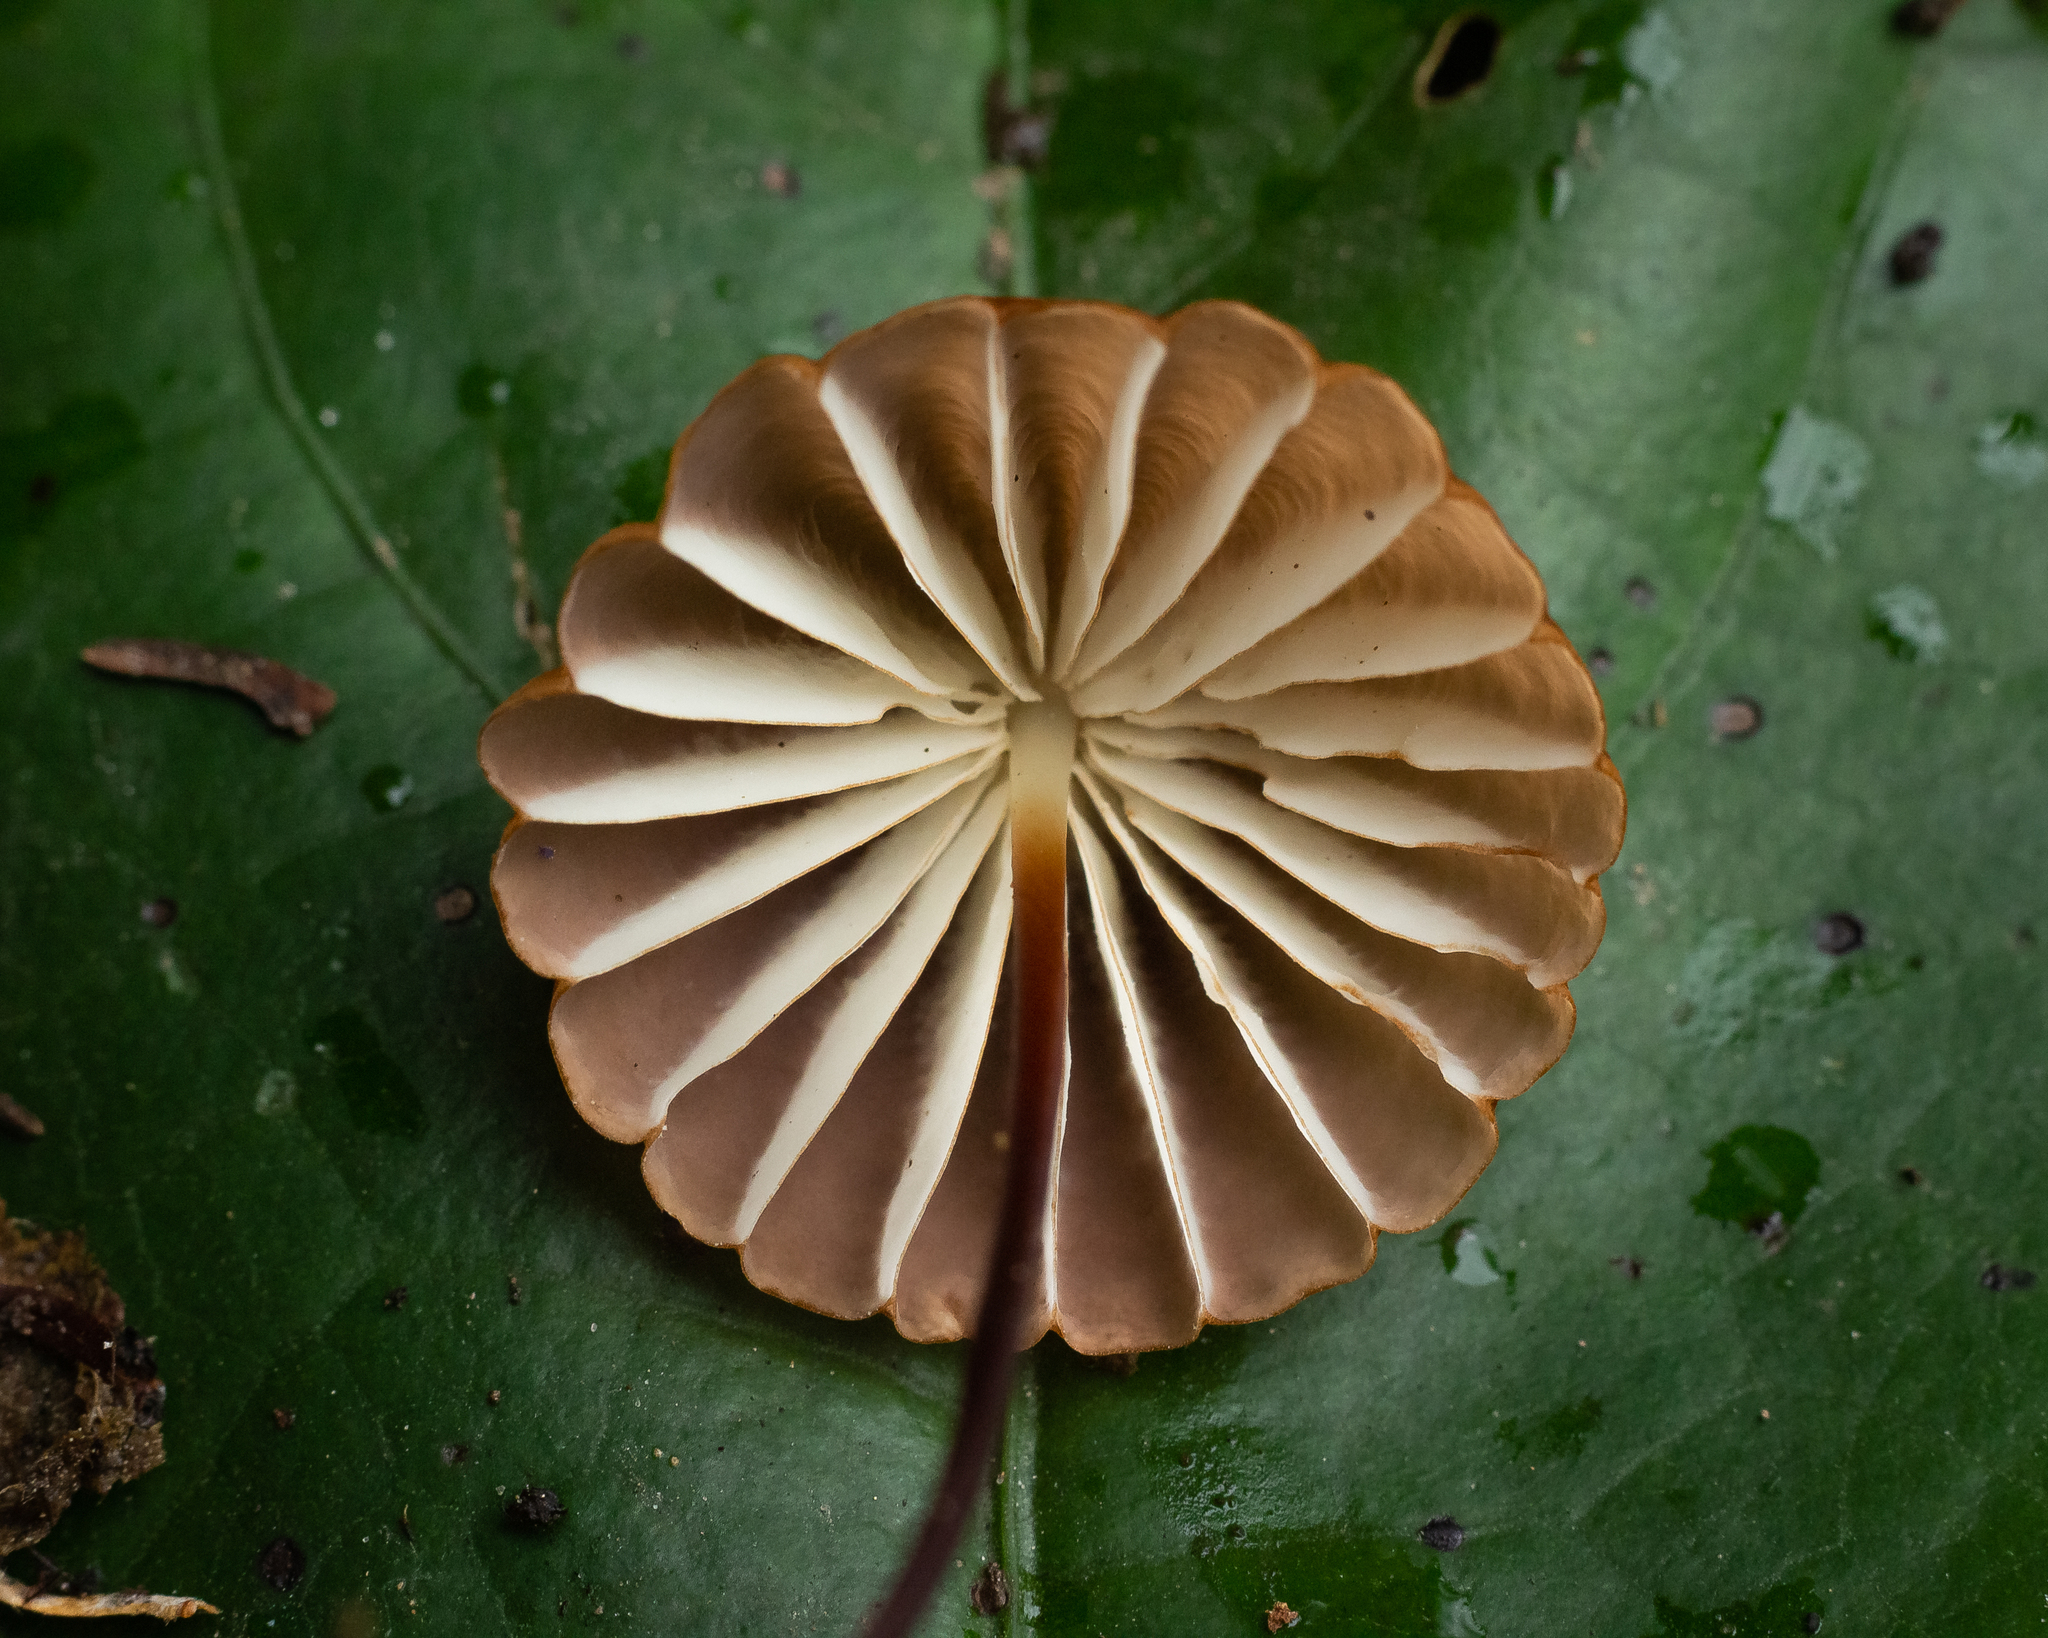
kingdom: Fungi
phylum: Basidiomycota
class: Agaricomycetes
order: Agaricales
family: Marasmiaceae
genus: Marasmius
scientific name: Marasmius berteroi
